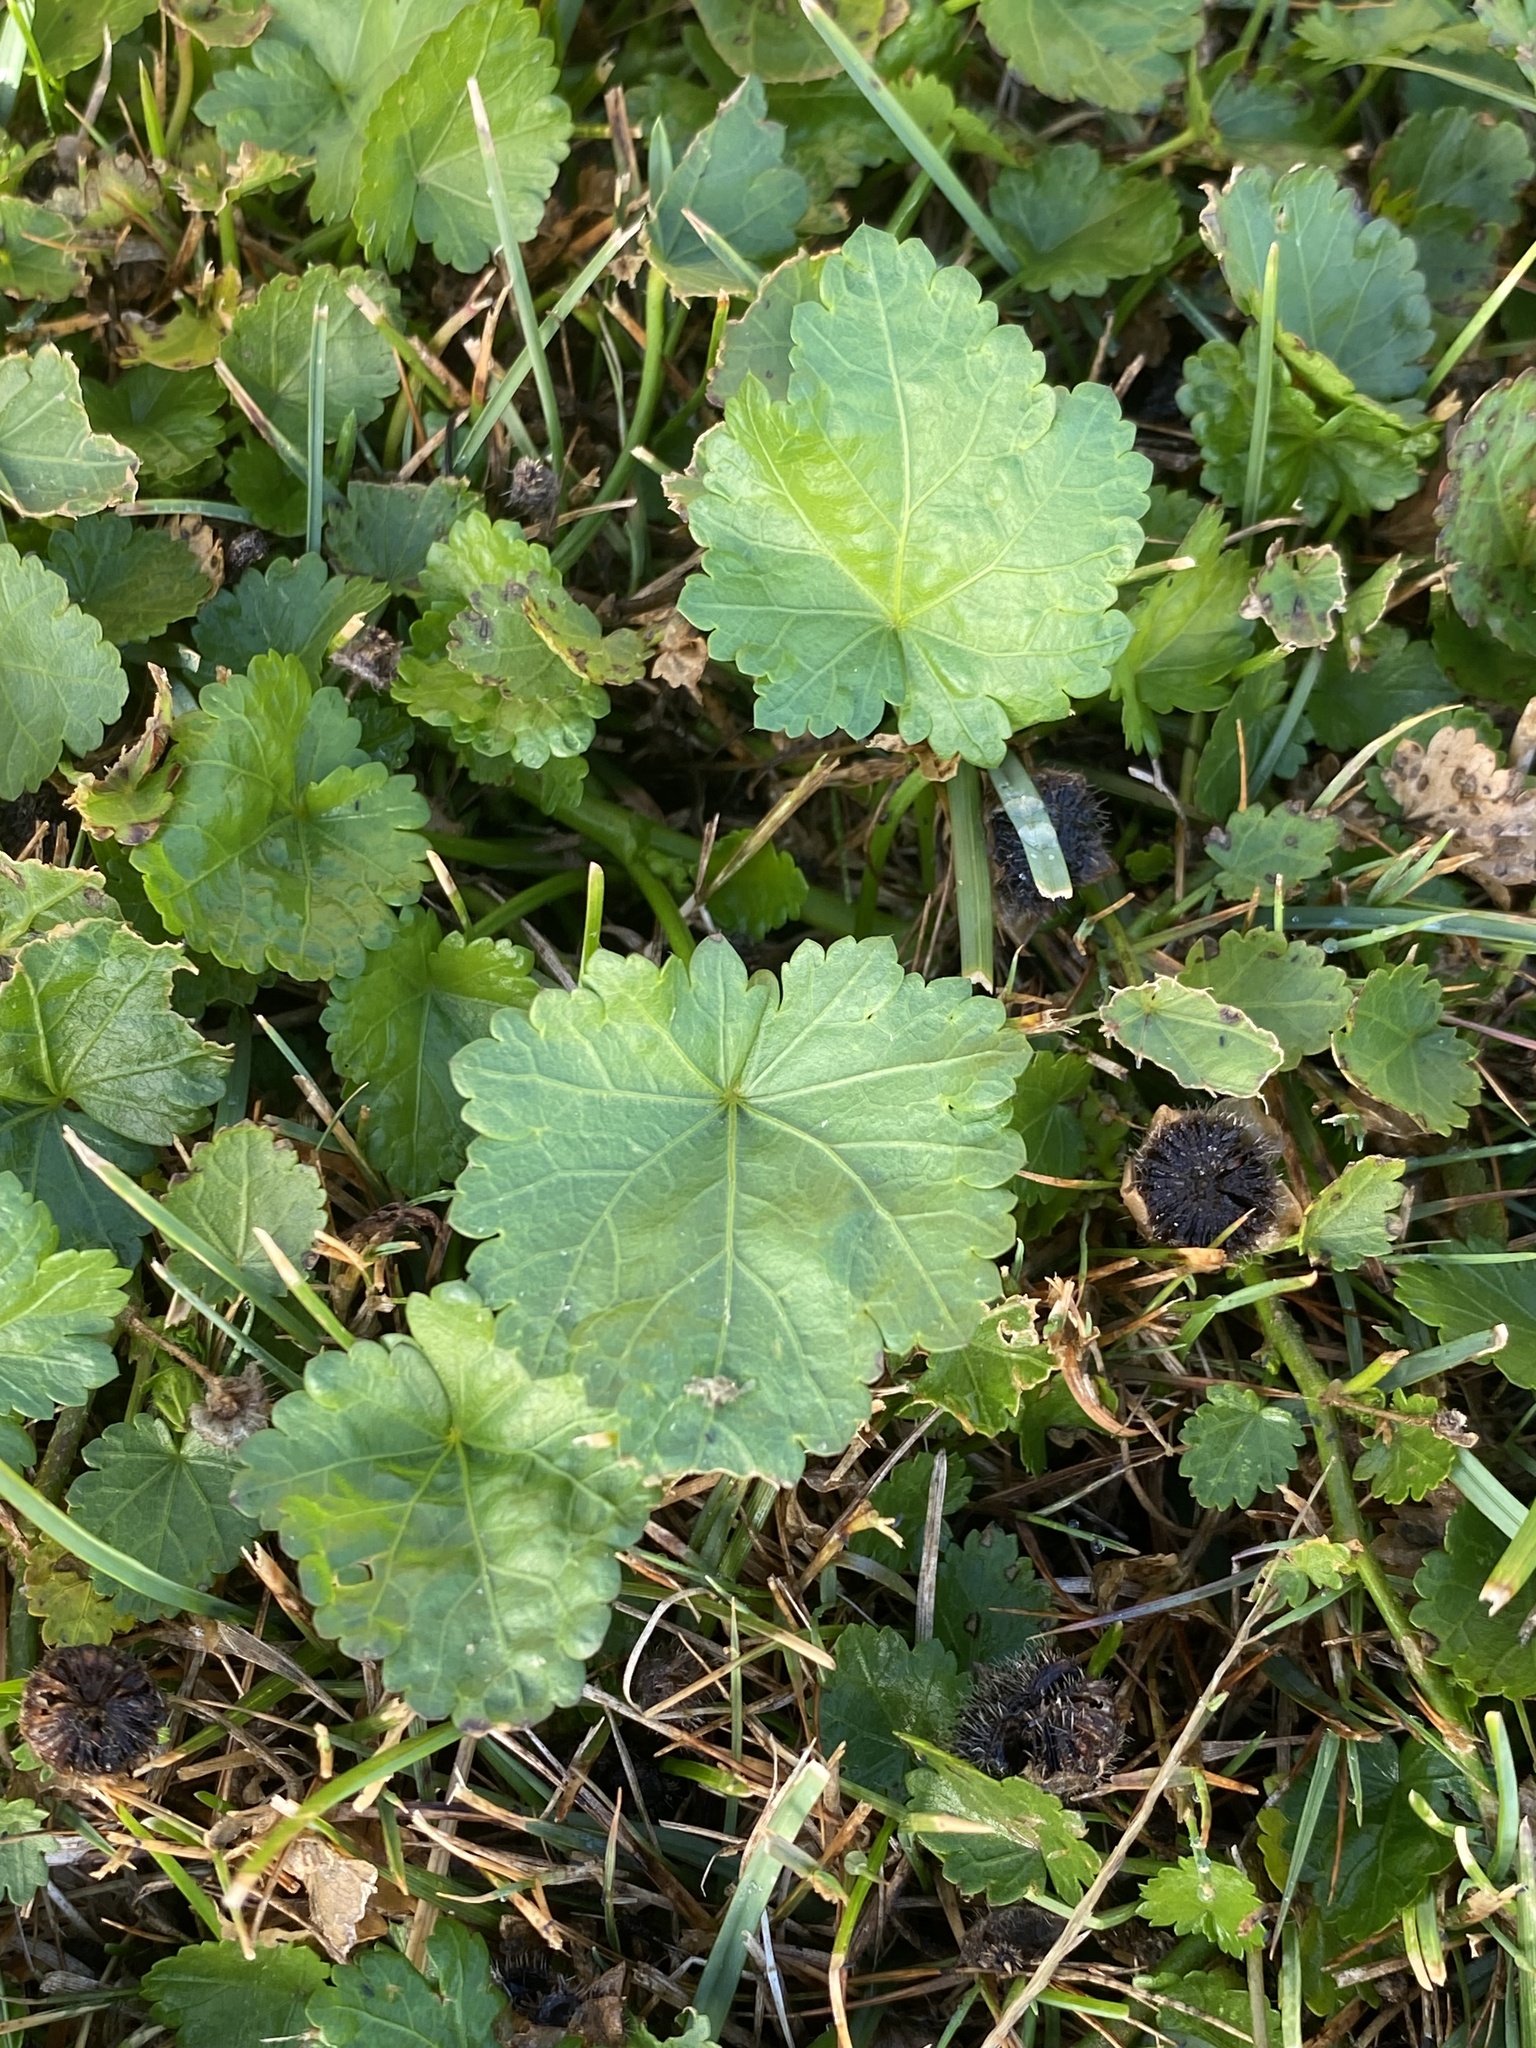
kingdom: Plantae
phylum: Tracheophyta
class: Magnoliopsida
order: Malvales
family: Malvaceae
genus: Modiola
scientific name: Modiola caroliniana
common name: Carolina bristlemallow
